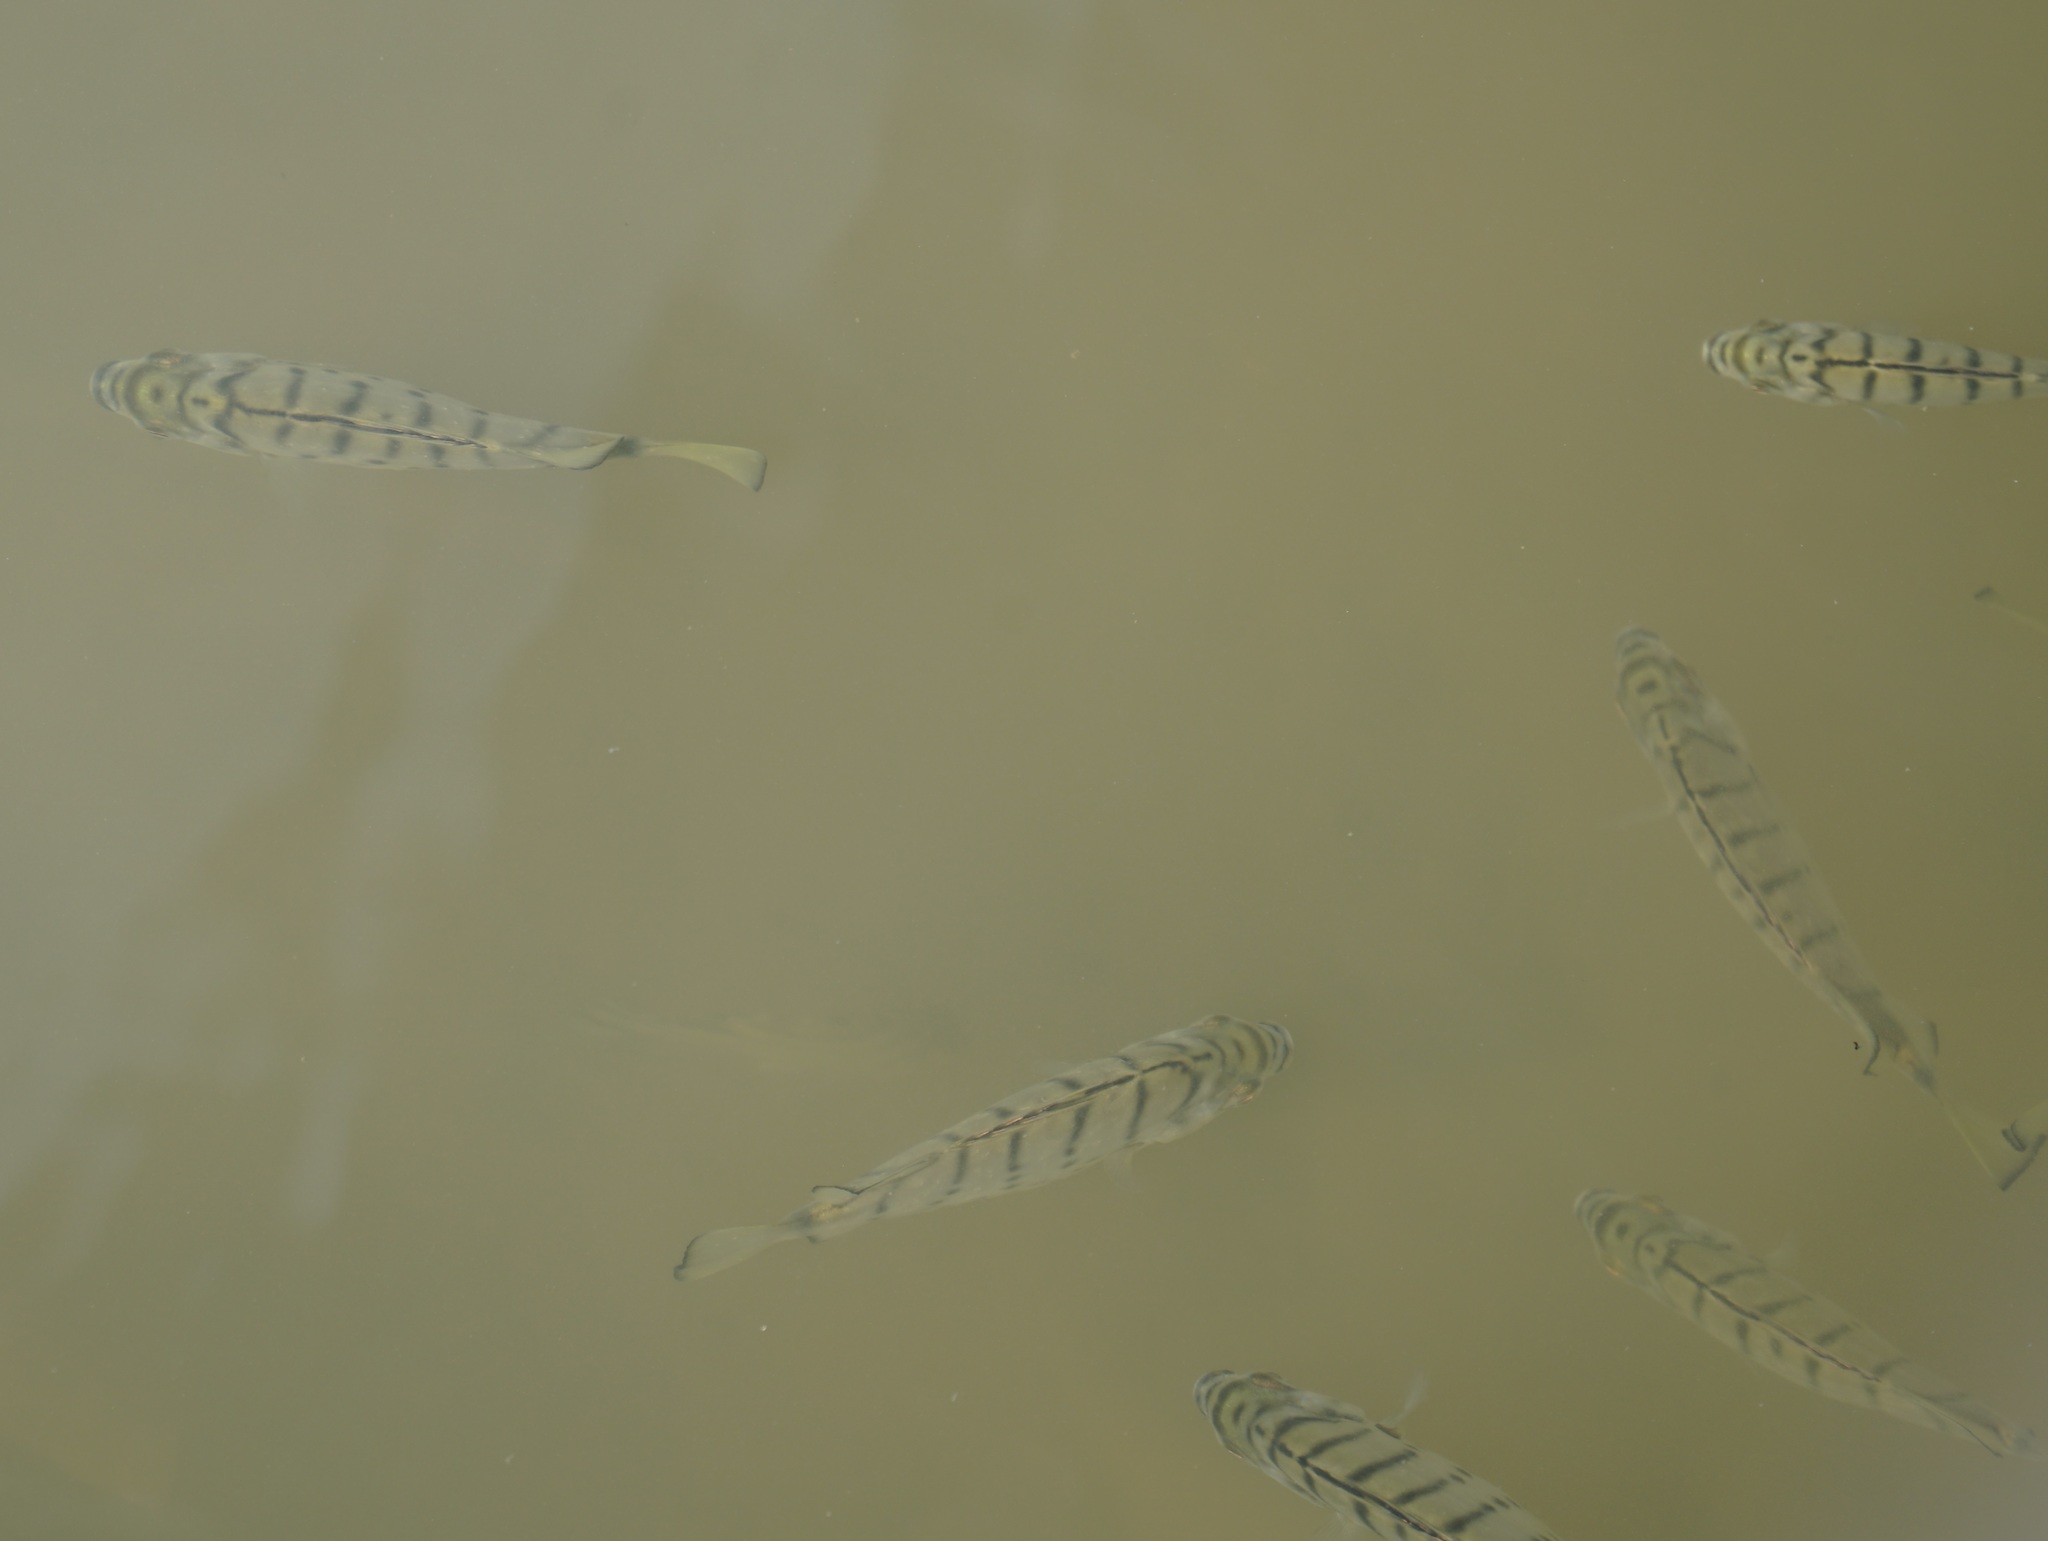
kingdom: Animalia
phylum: Chordata
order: Perciformes
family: Scatophagidae
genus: Selenotoca
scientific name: Selenotoca multifasciata
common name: Striped scat
